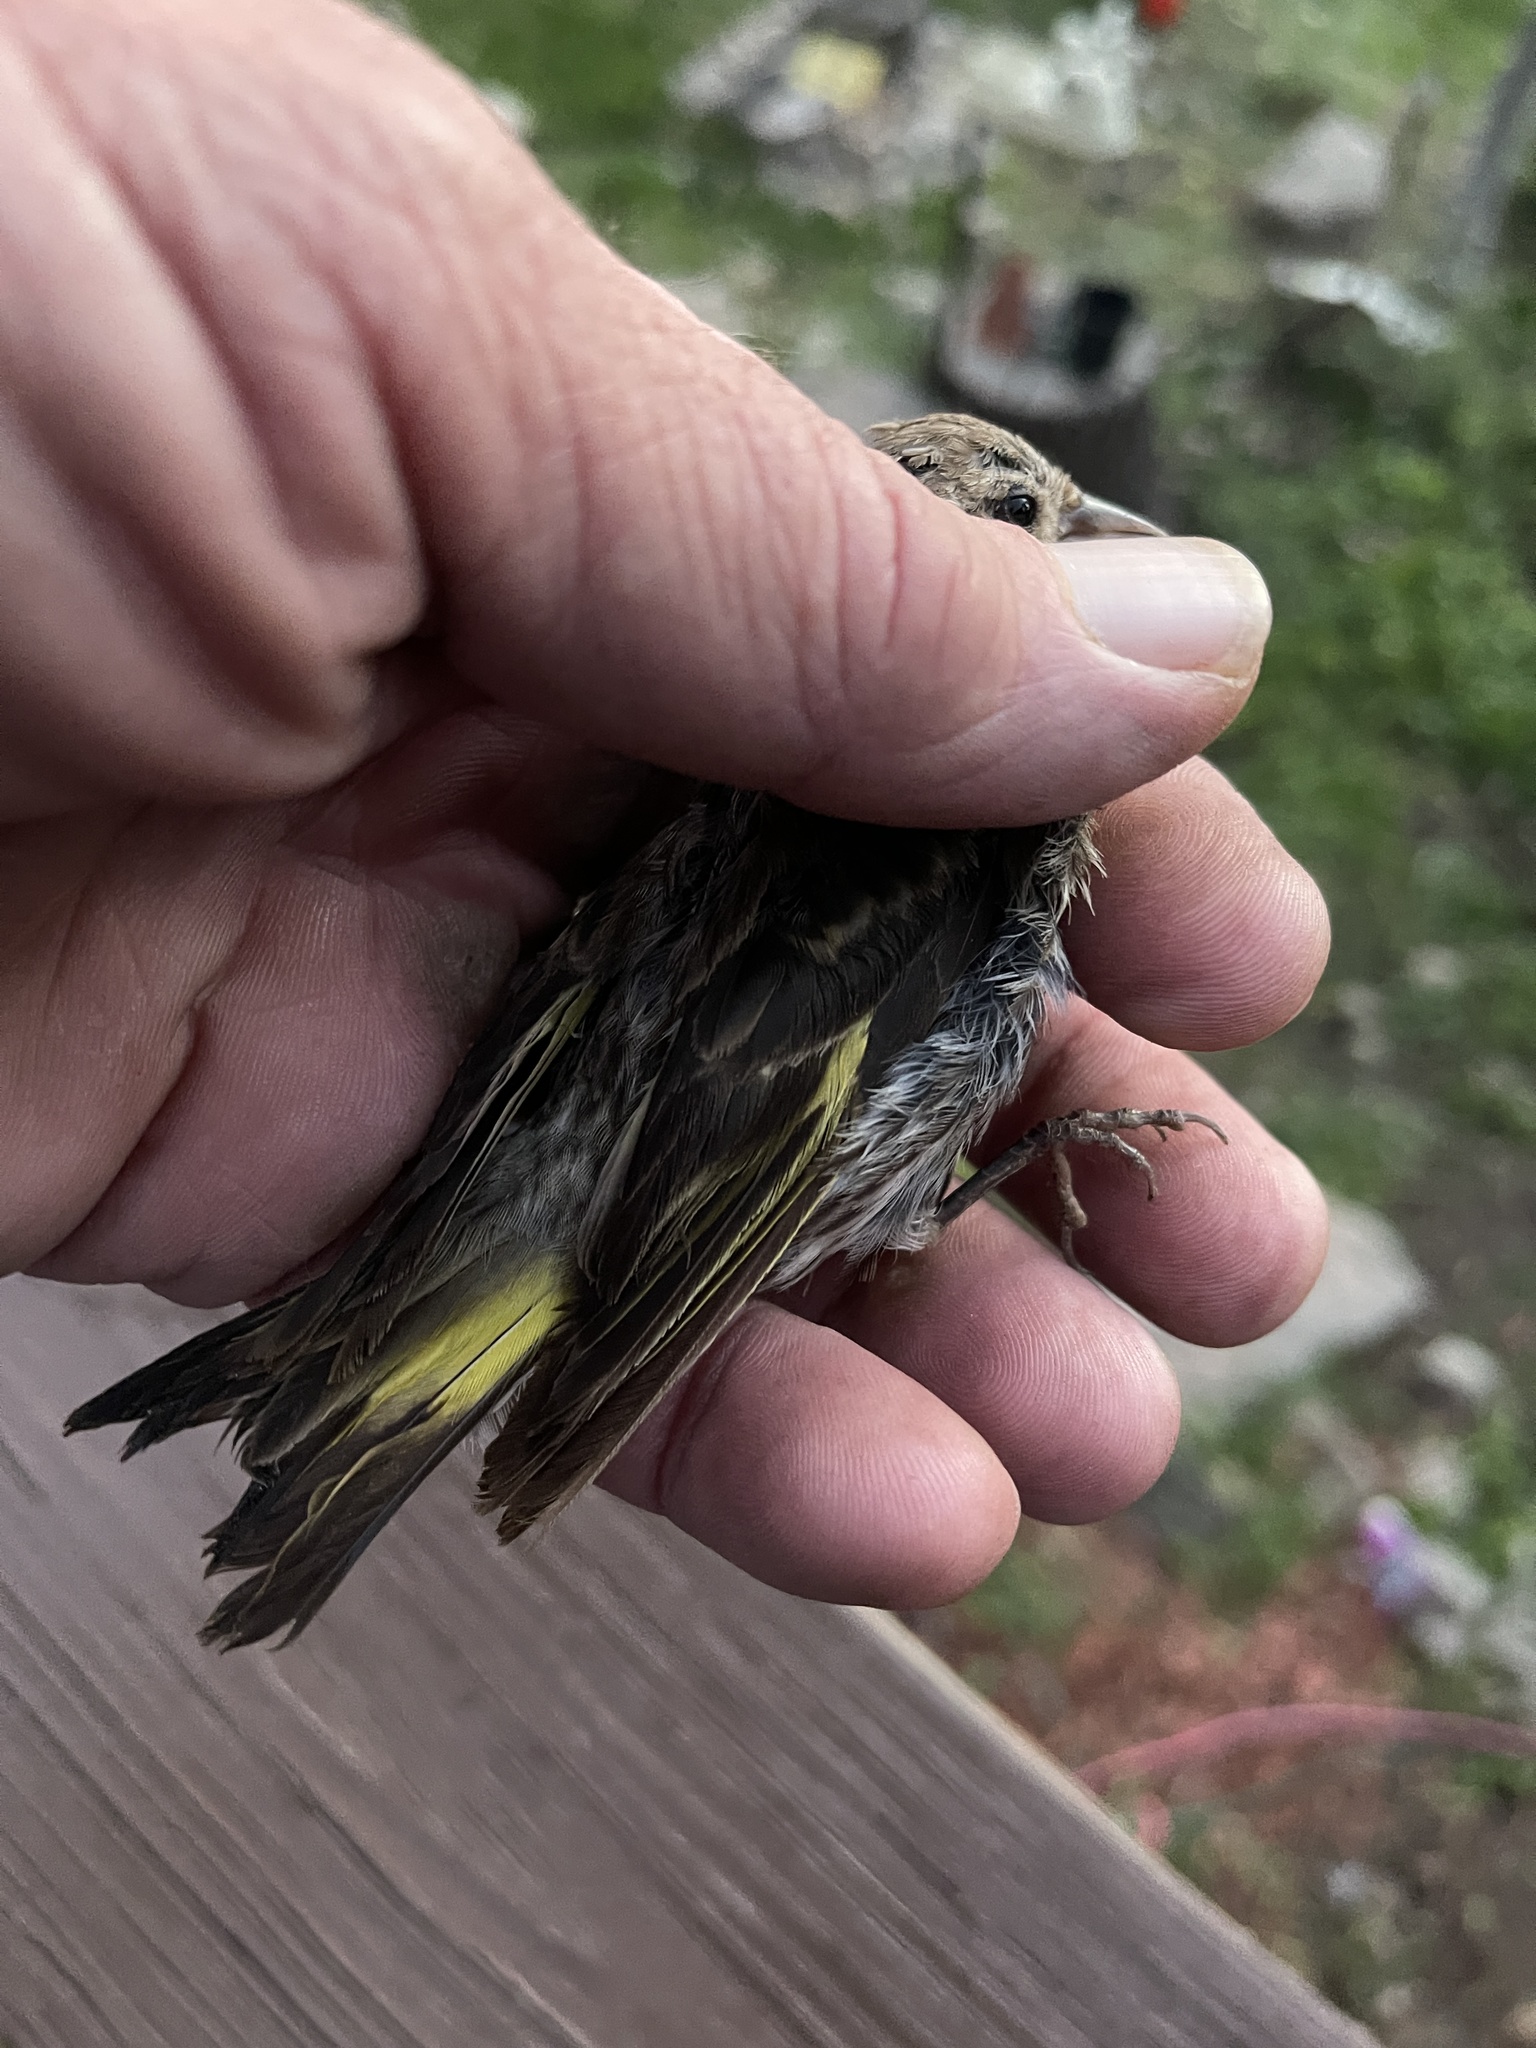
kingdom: Animalia
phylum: Chordata
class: Aves
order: Passeriformes
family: Fringillidae
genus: Spinus
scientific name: Spinus pinus
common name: Pine siskin
